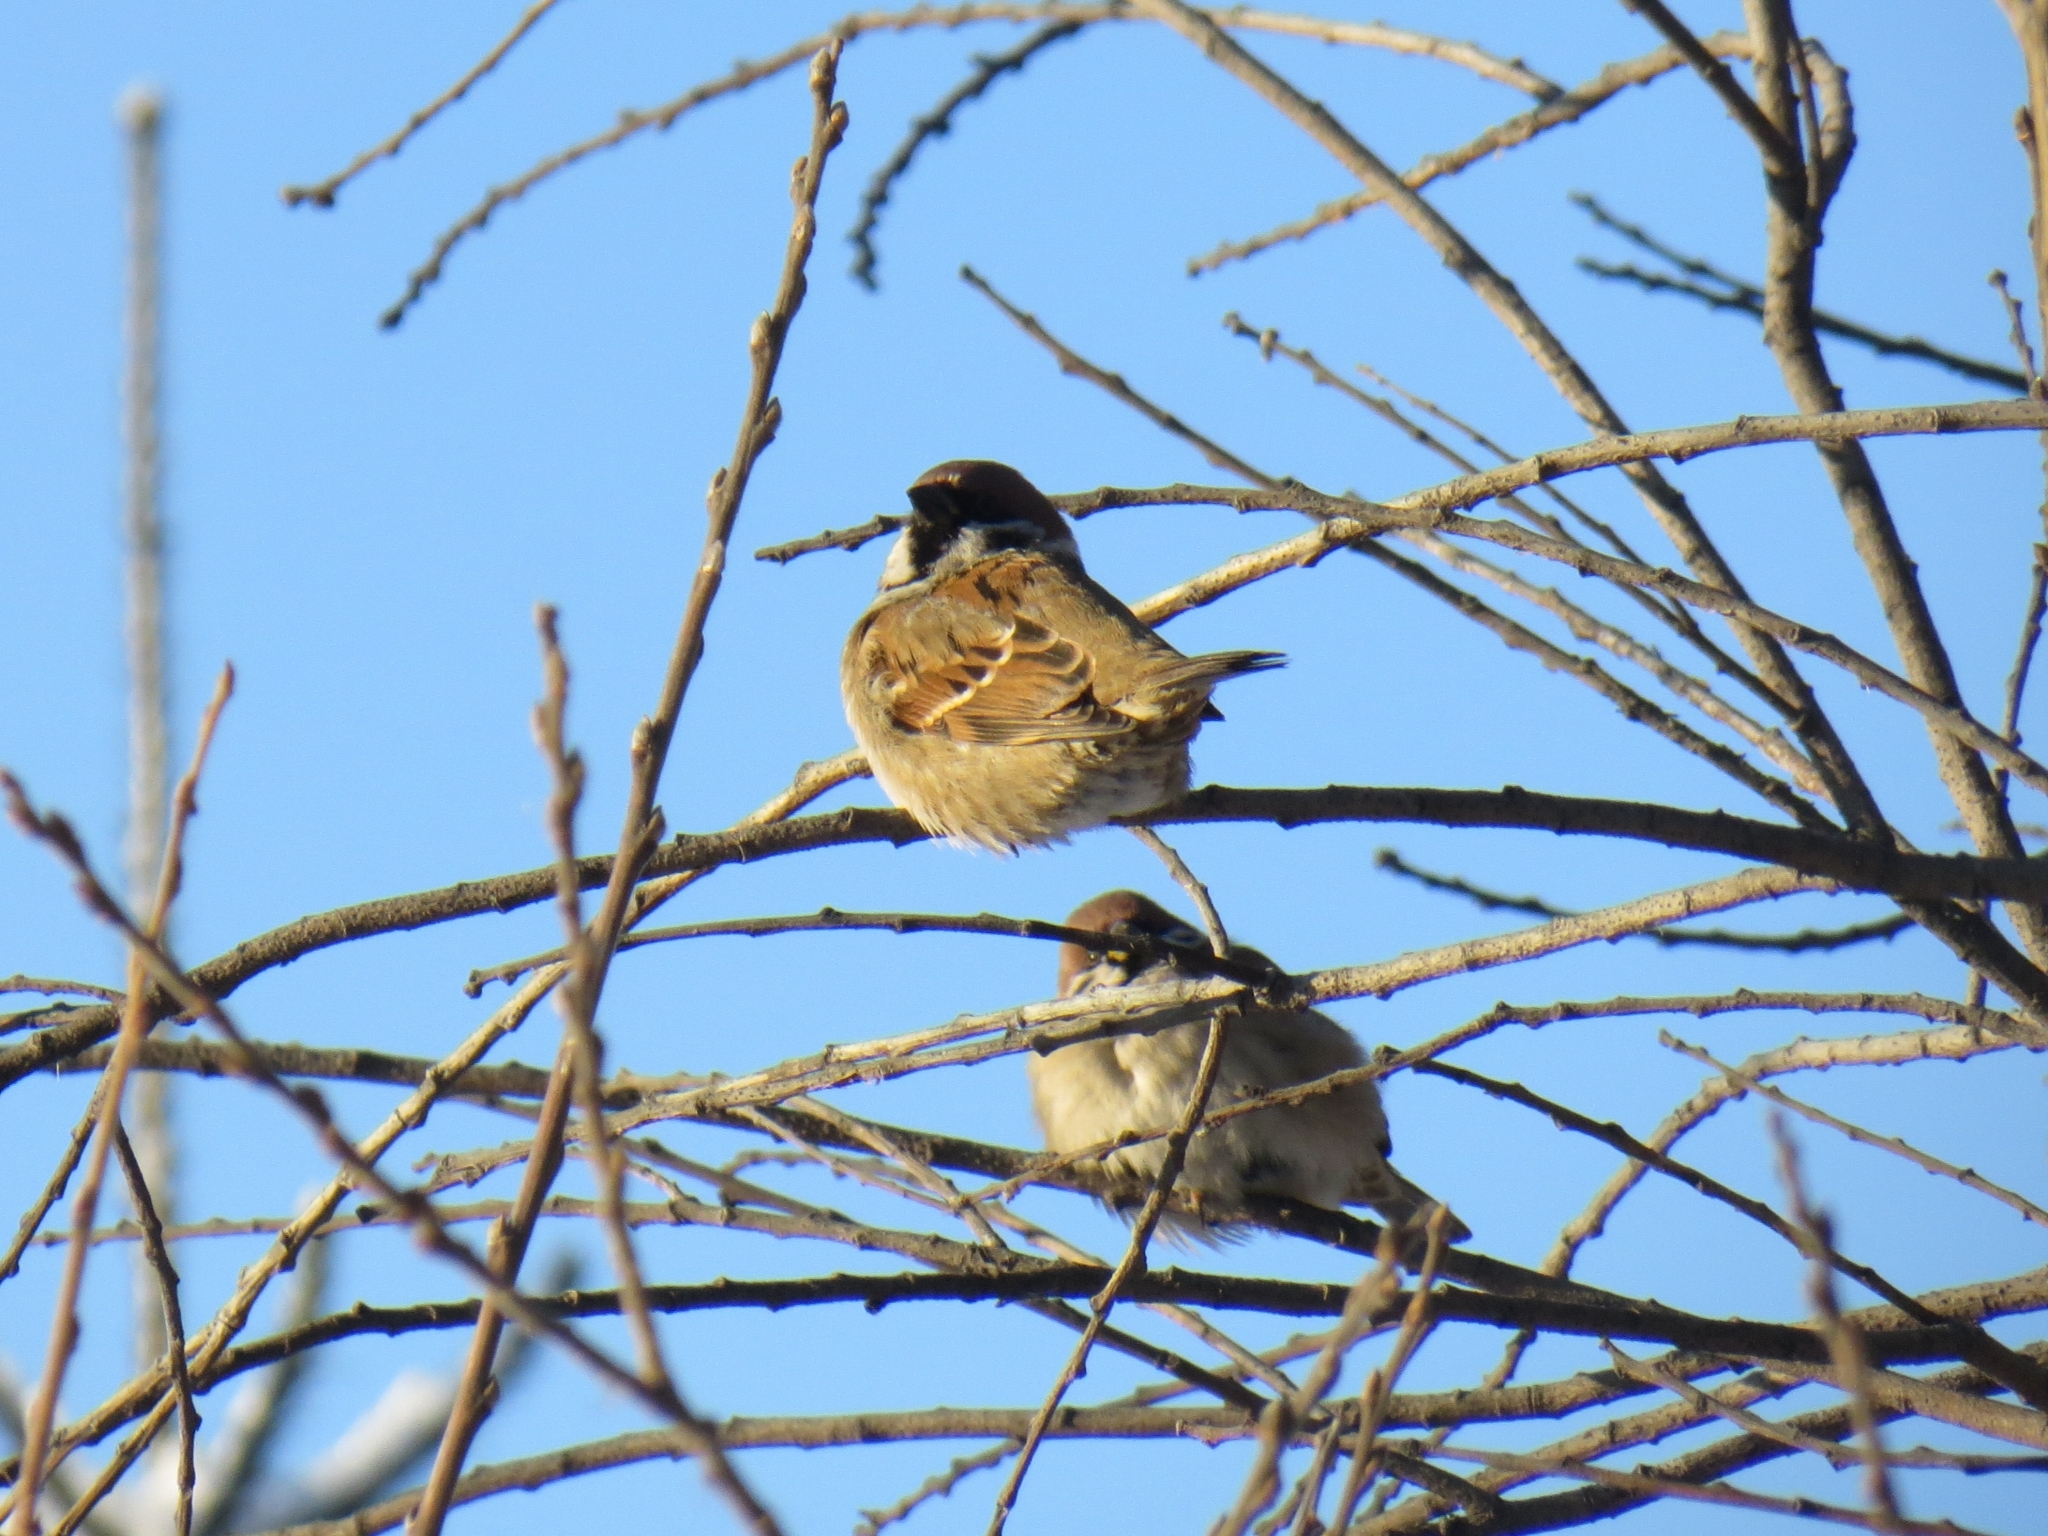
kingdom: Animalia
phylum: Chordata
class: Aves
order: Passeriformes
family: Passeridae
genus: Passer
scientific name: Passer montanus
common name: Eurasian tree sparrow
